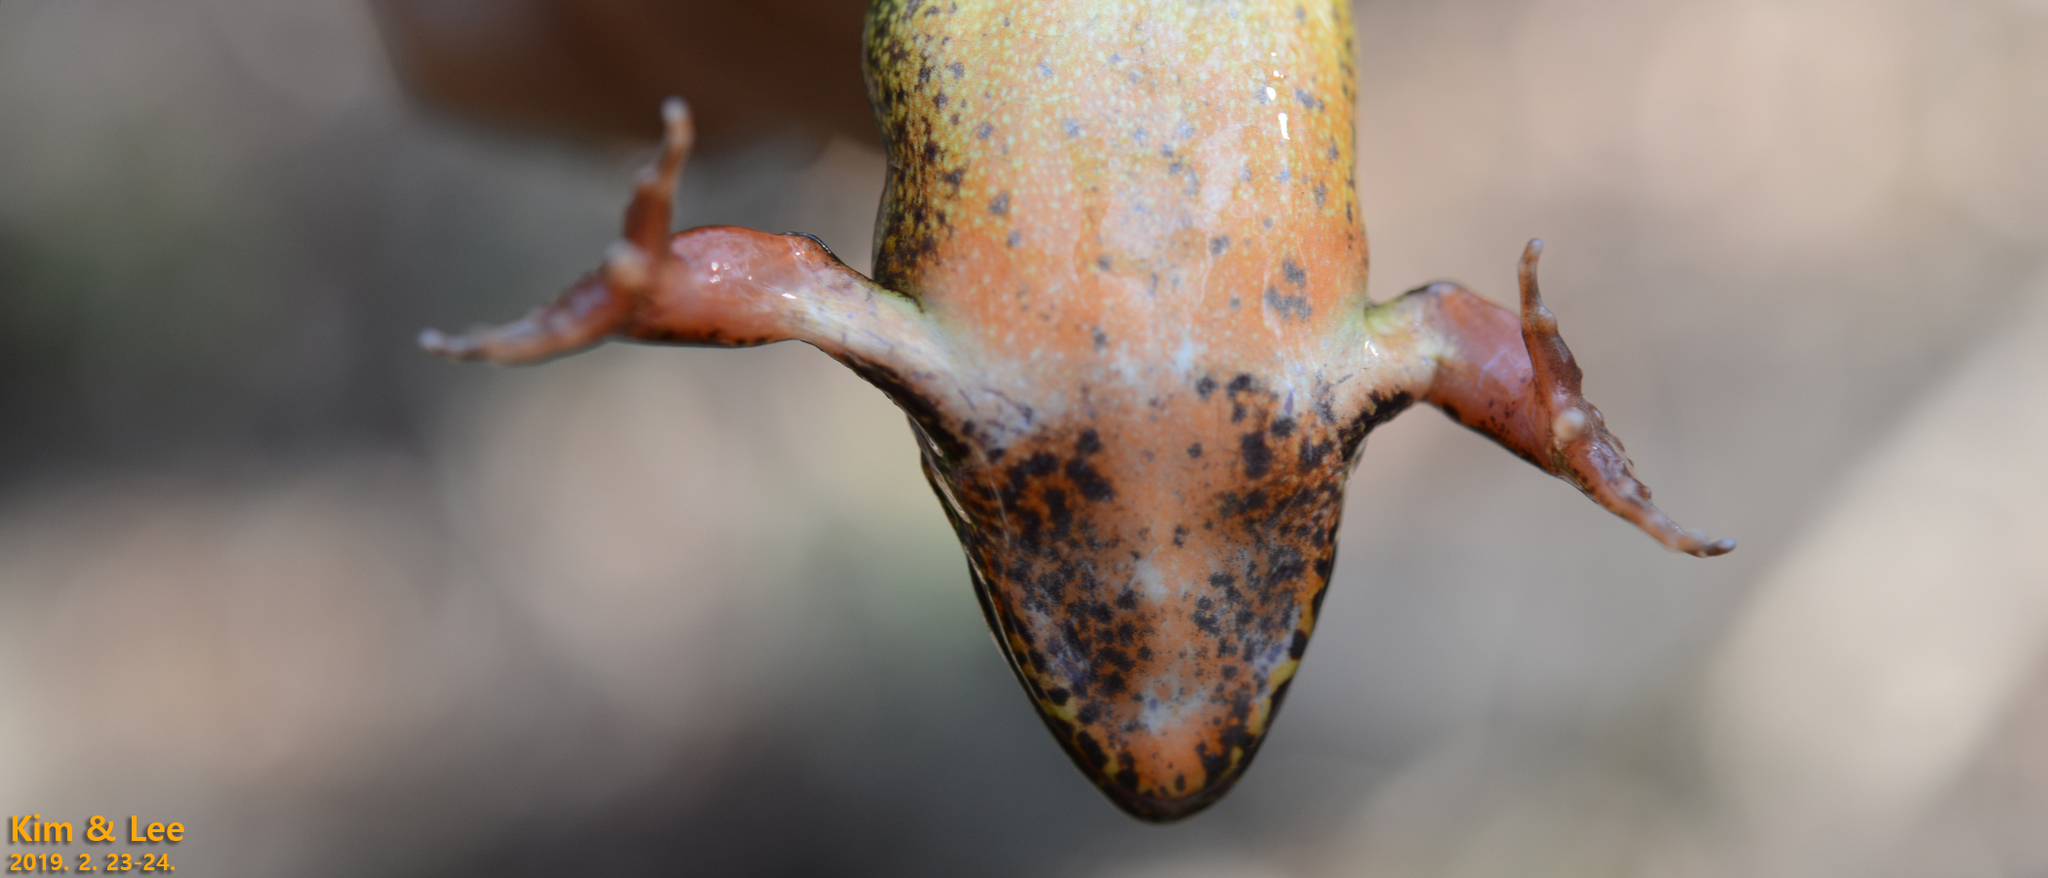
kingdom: Animalia
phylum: Chordata
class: Amphibia
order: Anura
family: Ranidae
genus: Rana
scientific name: Rana uenoi
